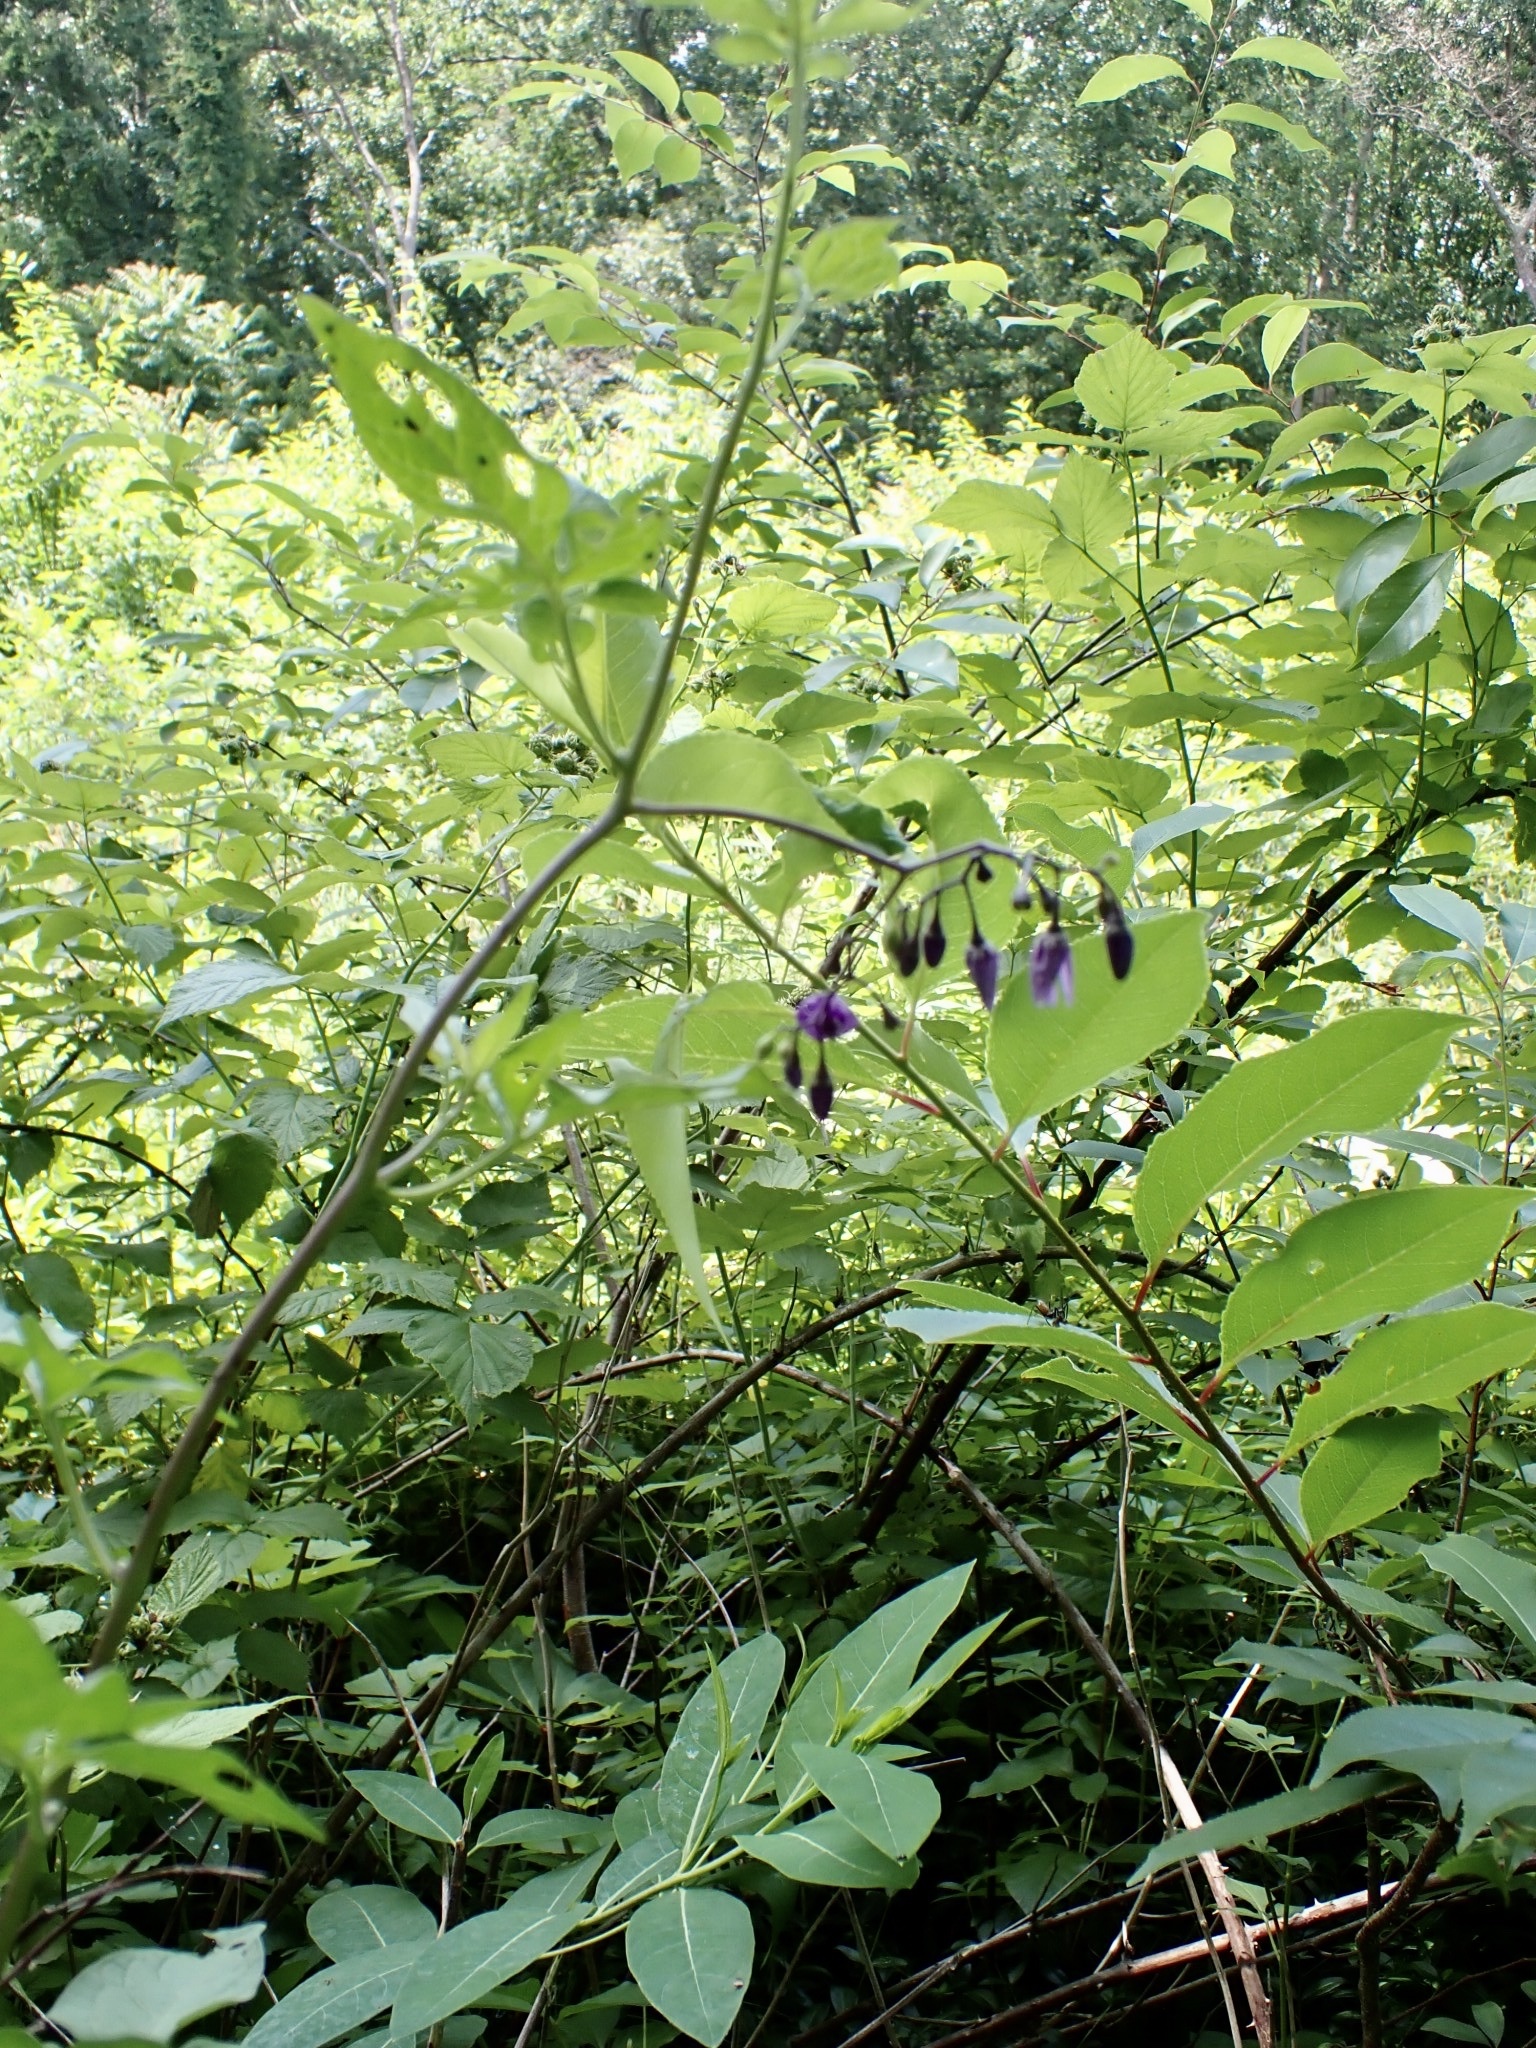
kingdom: Plantae
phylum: Tracheophyta
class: Magnoliopsida
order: Solanales
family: Solanaceae
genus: Solanum
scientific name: Solanum dulcamara
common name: Climbing nightshade
